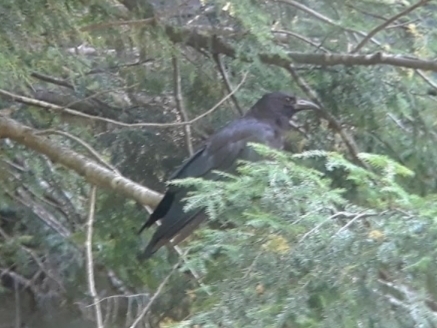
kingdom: Animalia
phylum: Chordata
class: Aves
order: Passeriformes
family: Corvidae
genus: Corvus
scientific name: Corvus brachyrhynchos
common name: American crow
